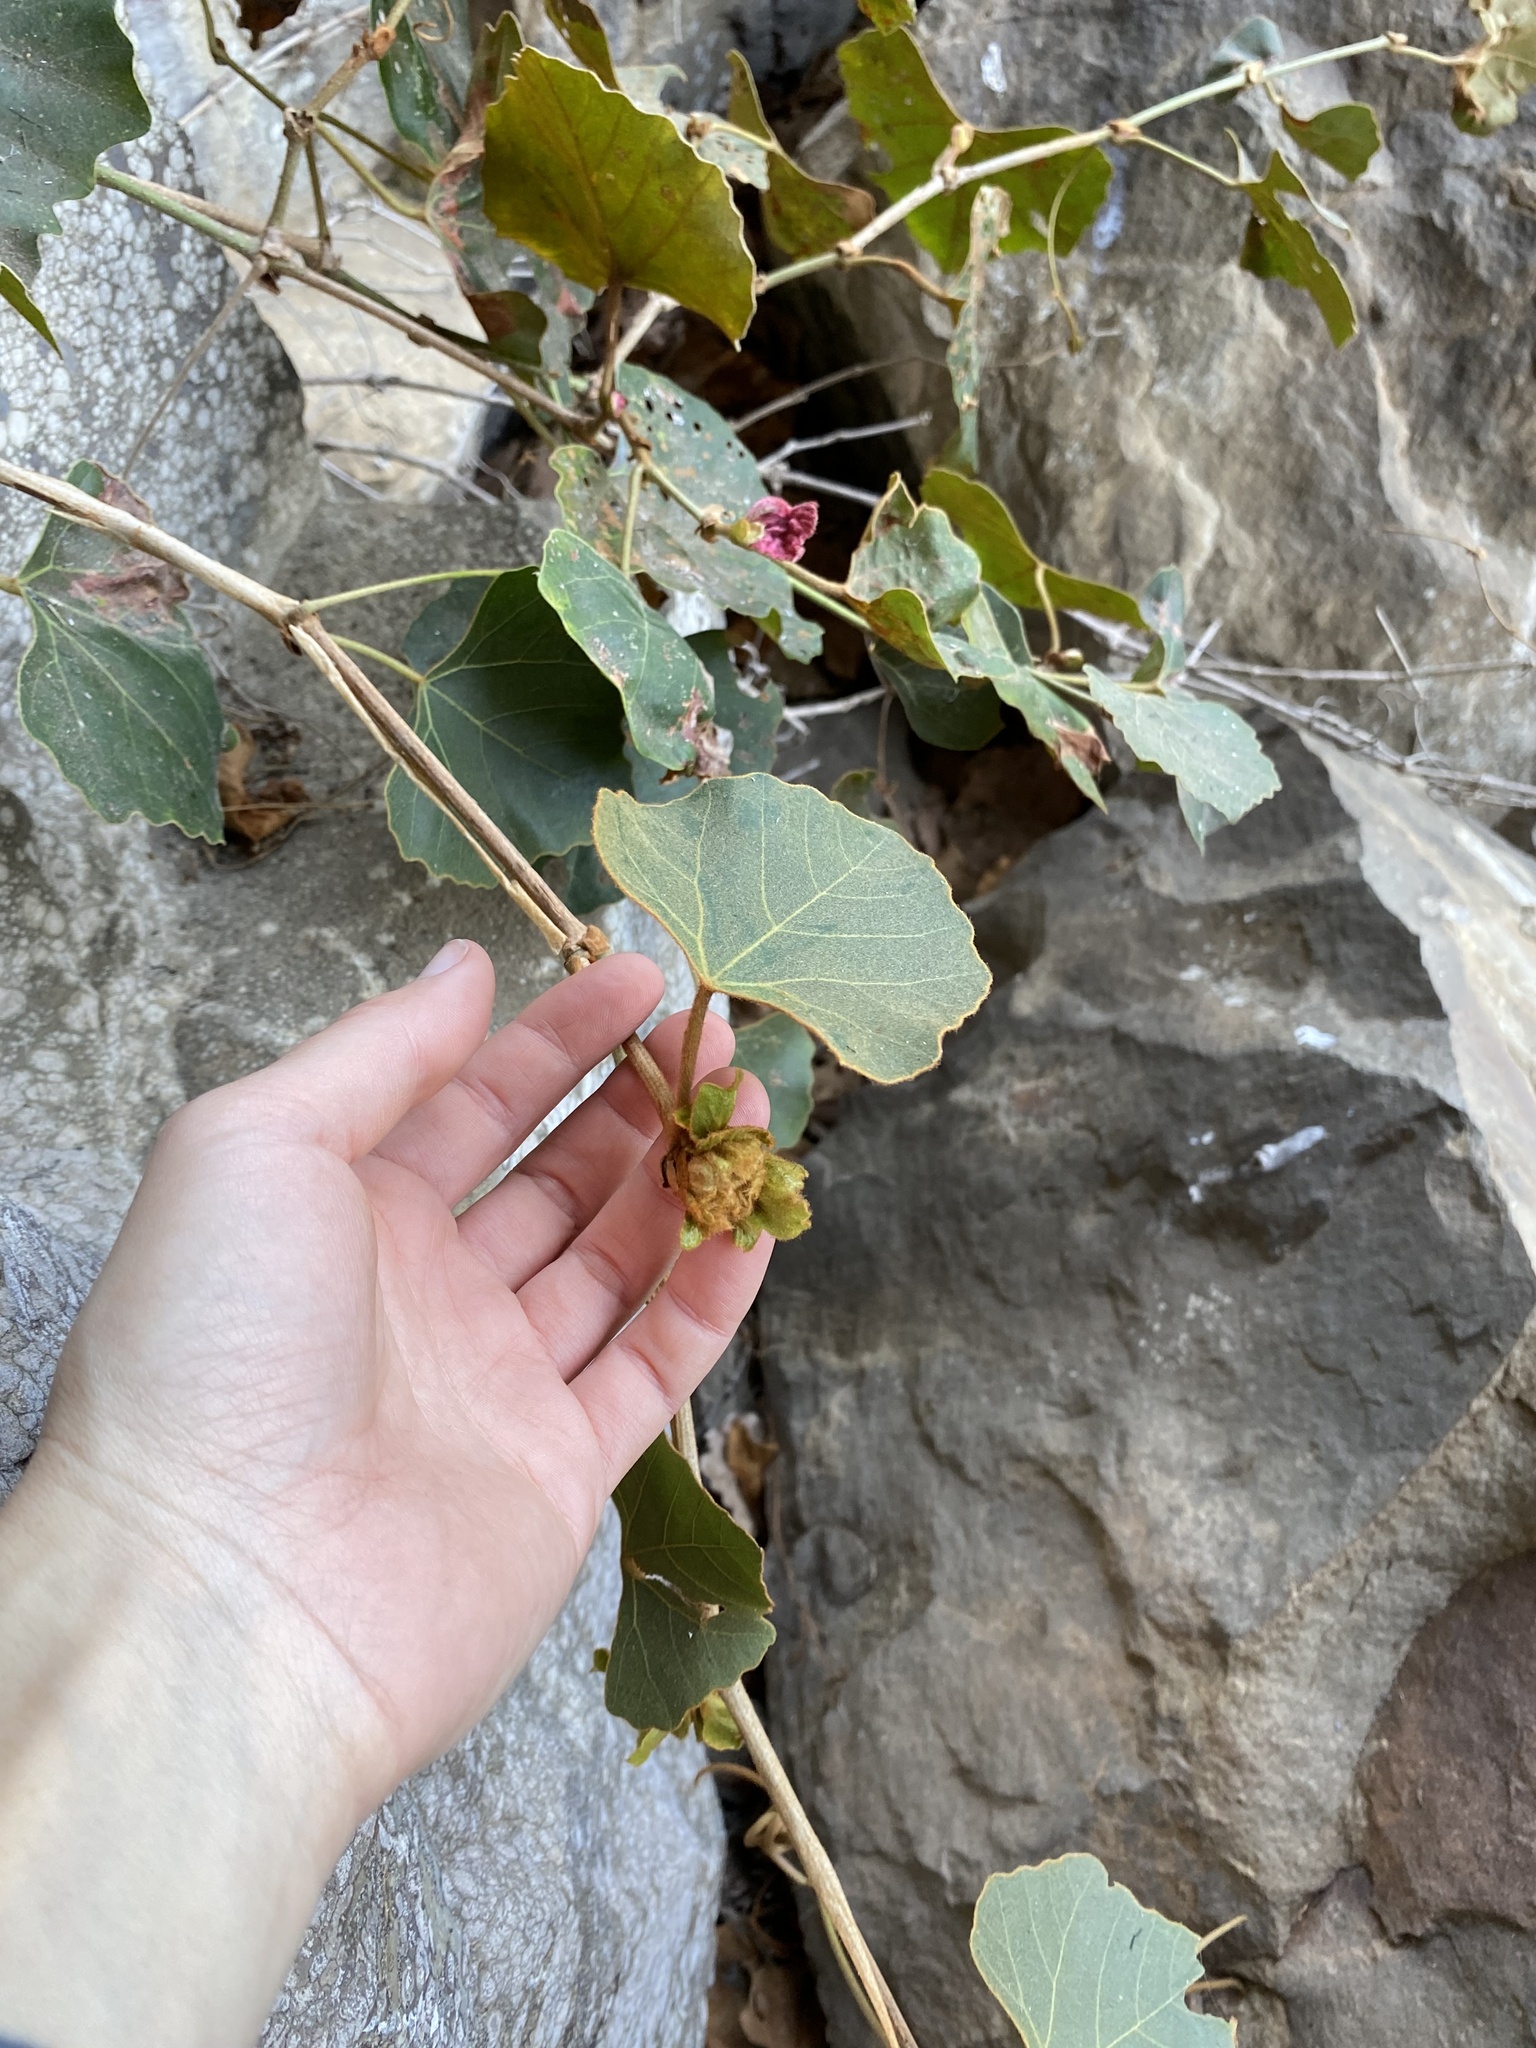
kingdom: Plantae
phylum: Tracheophyta
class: Magnoliopsida
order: Vitales
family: Vitaceae
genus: Rhoicissus
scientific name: Rhoicissus tomentosa
